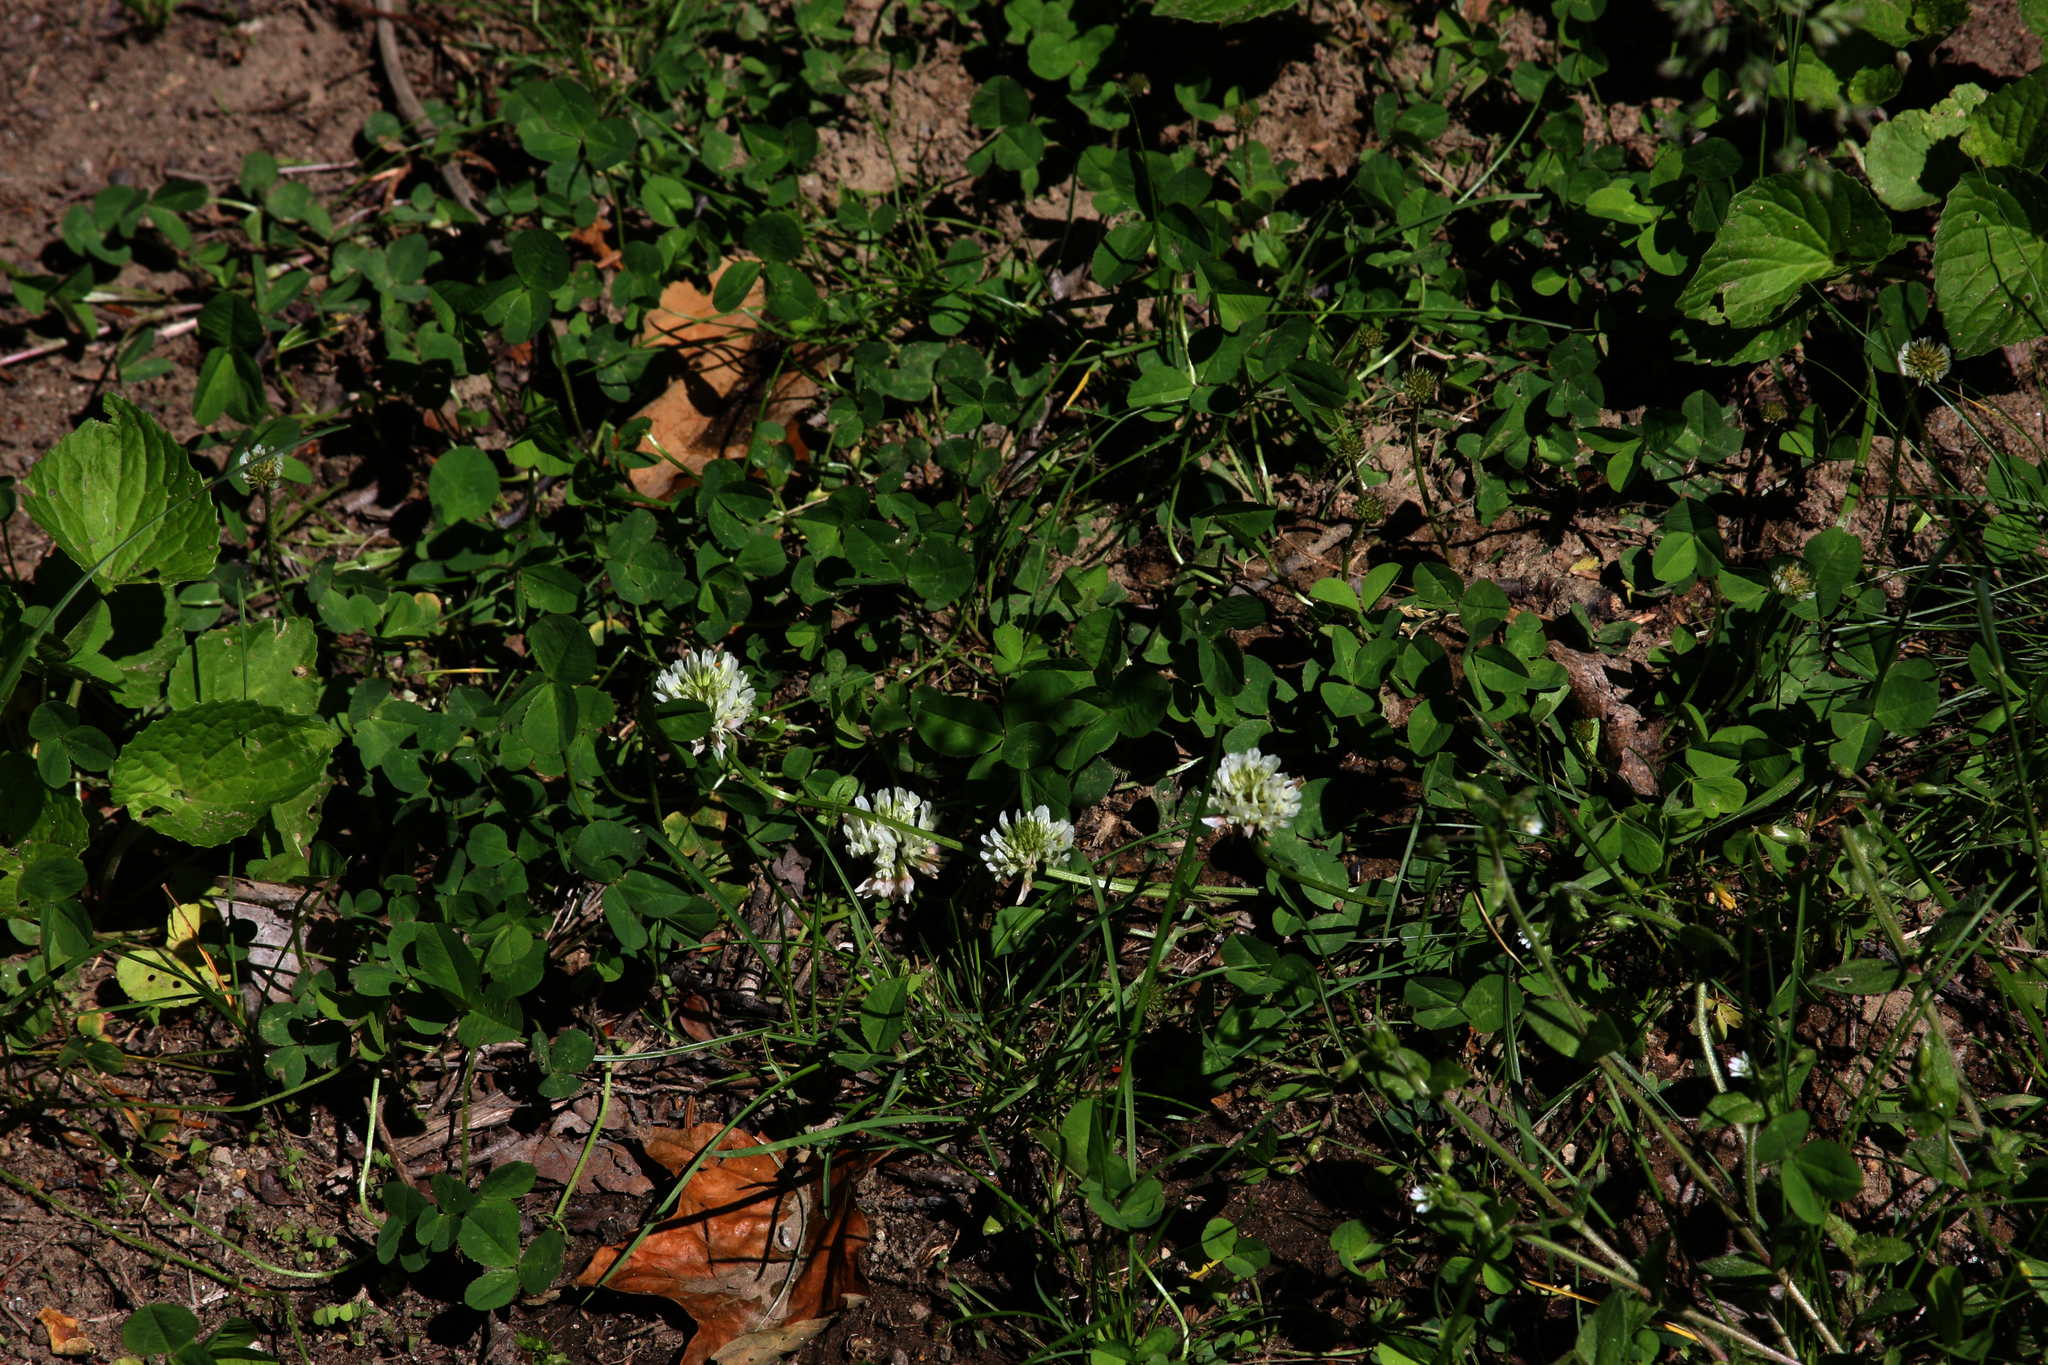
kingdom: Plantae
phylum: Tracheophyta
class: Magnoliopsida
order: Fabales
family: Fabaceae
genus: Trifolium
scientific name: Trifolium repens
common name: White clover
